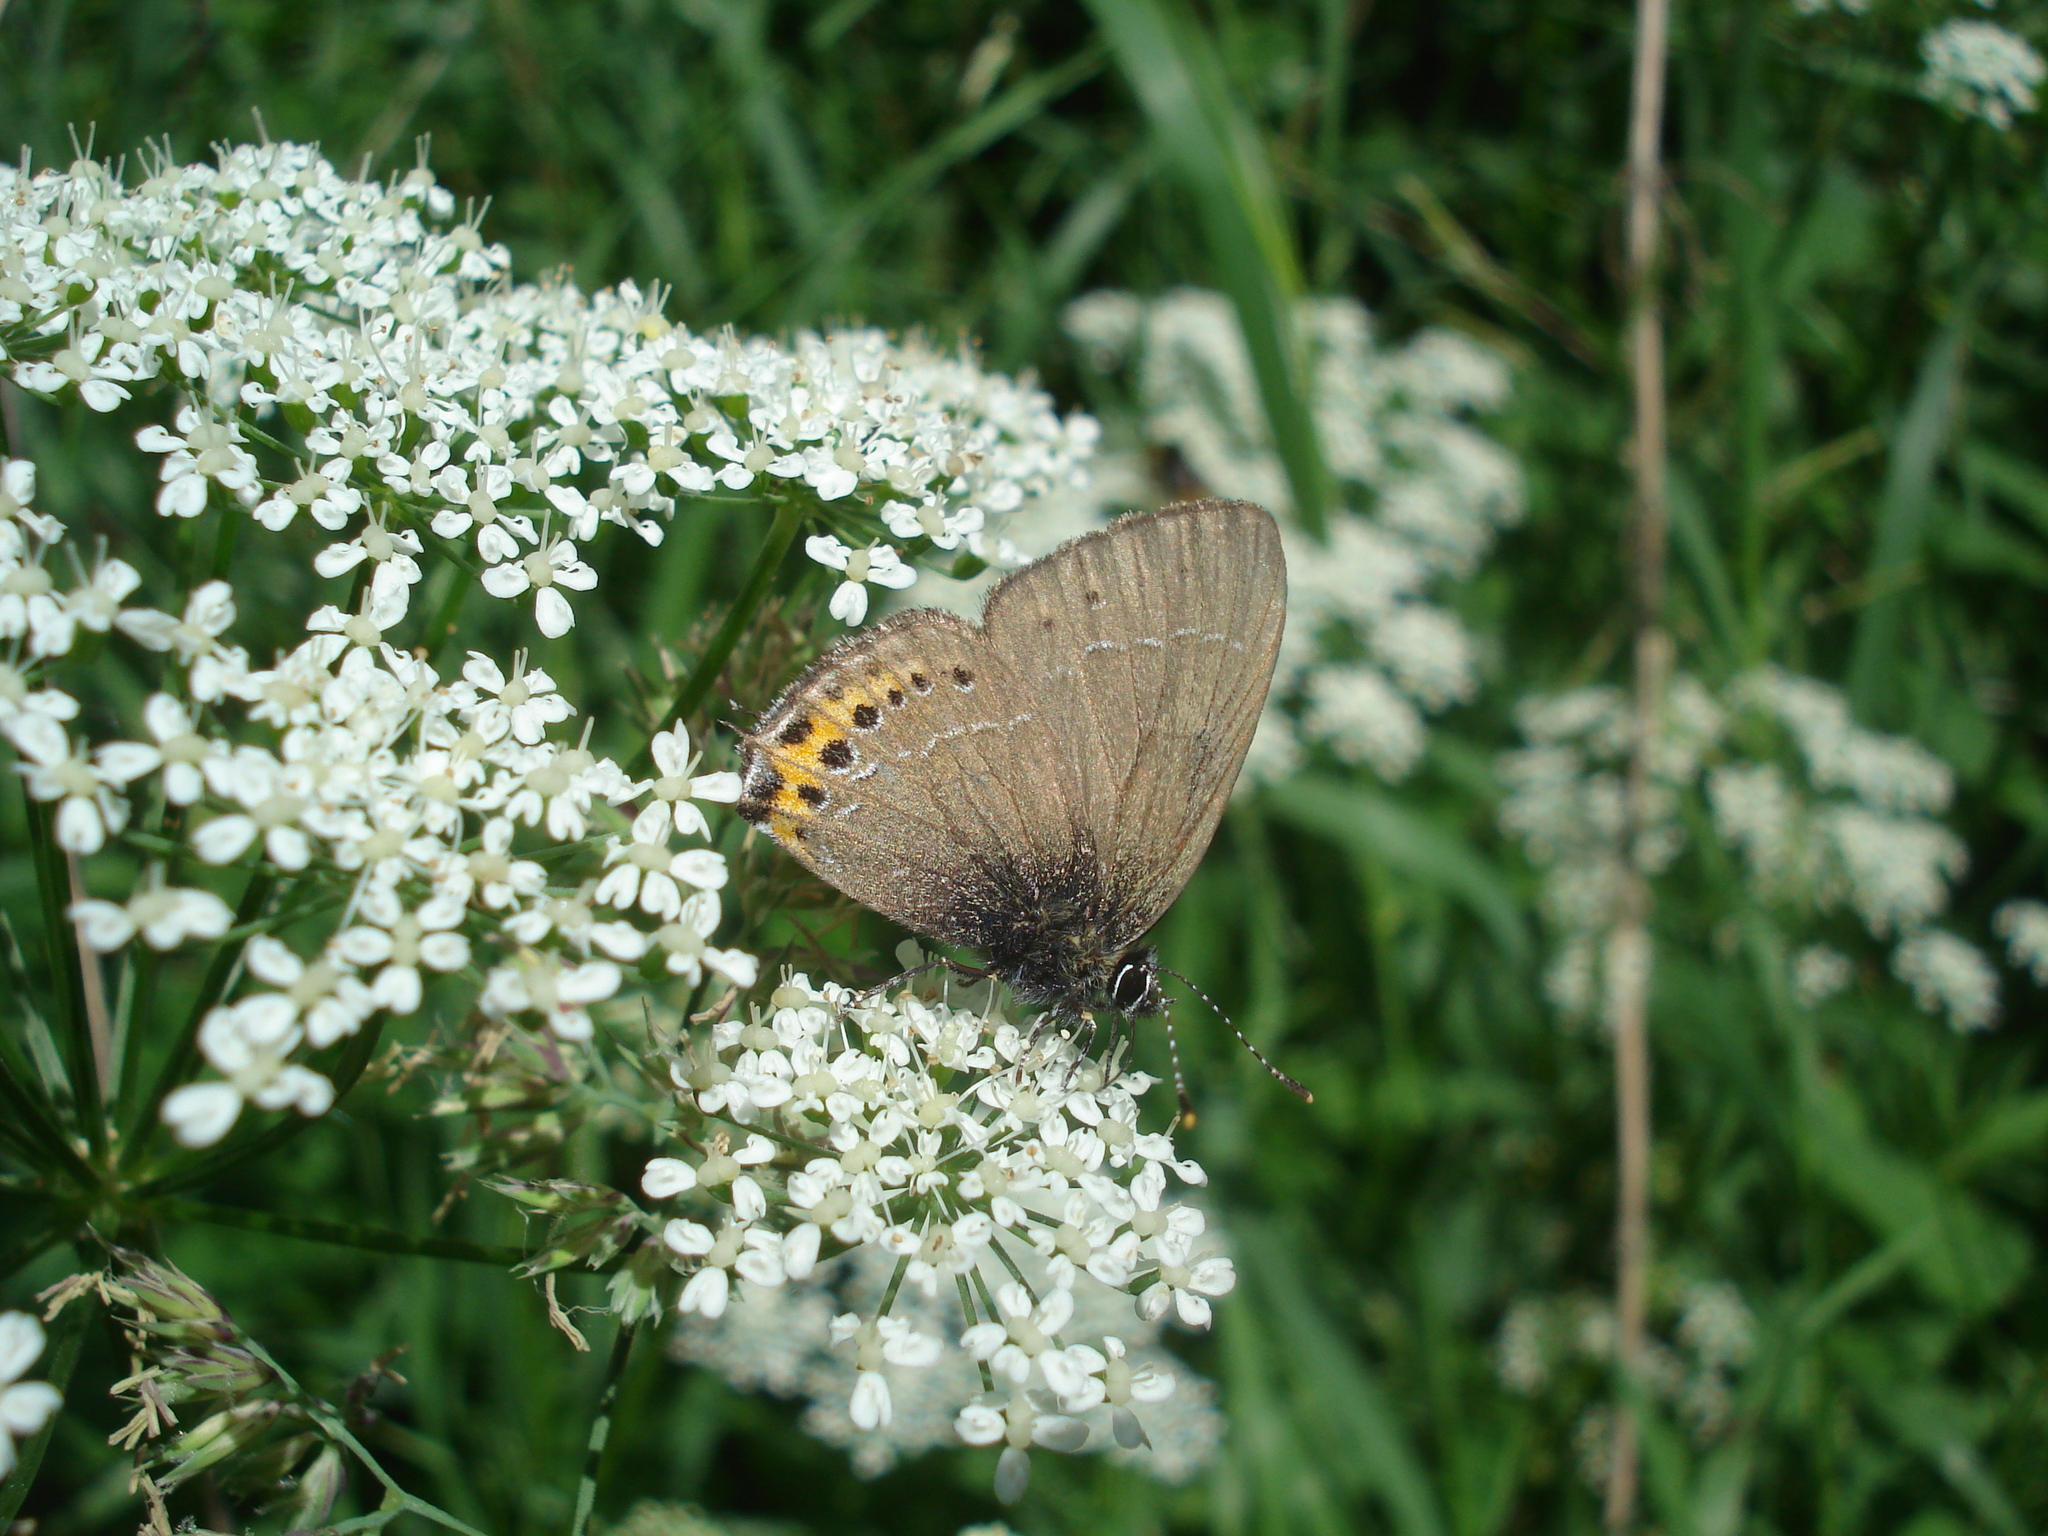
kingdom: Animalia
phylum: Arthropoda
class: Insecta
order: Lepidoptera
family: Lycaenidae
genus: Fixsenia
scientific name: Fixsenia pruni
